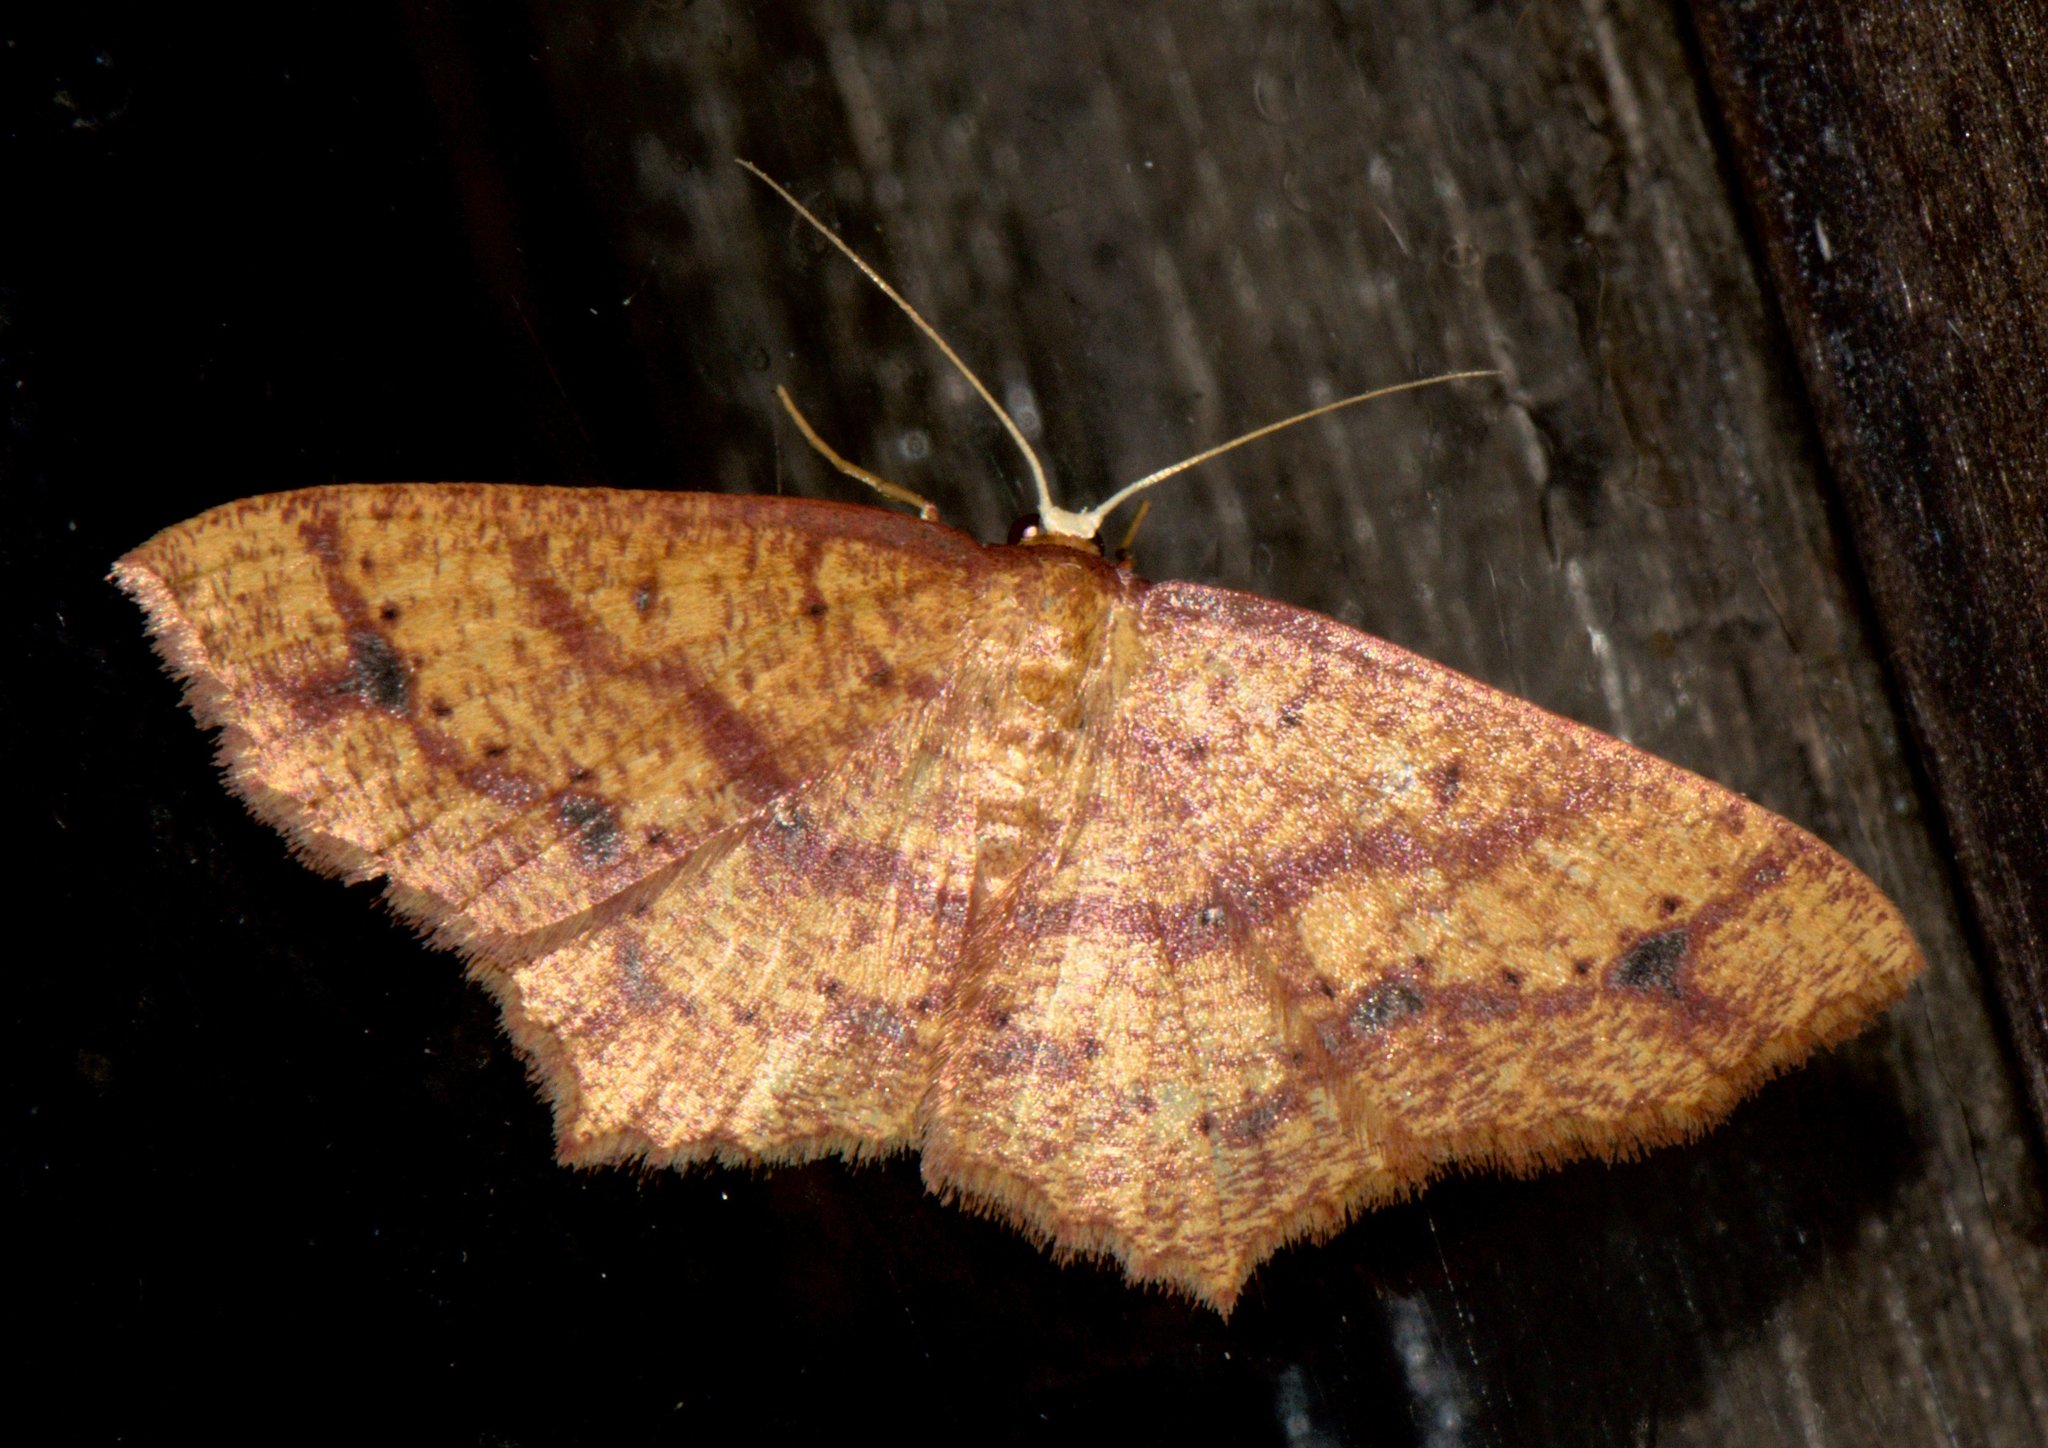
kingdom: Animalia
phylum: Arthropoda
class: Insecta
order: Lepidoptera
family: Geometridae
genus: Synegiodes
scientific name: Synegiodes hyriaria
